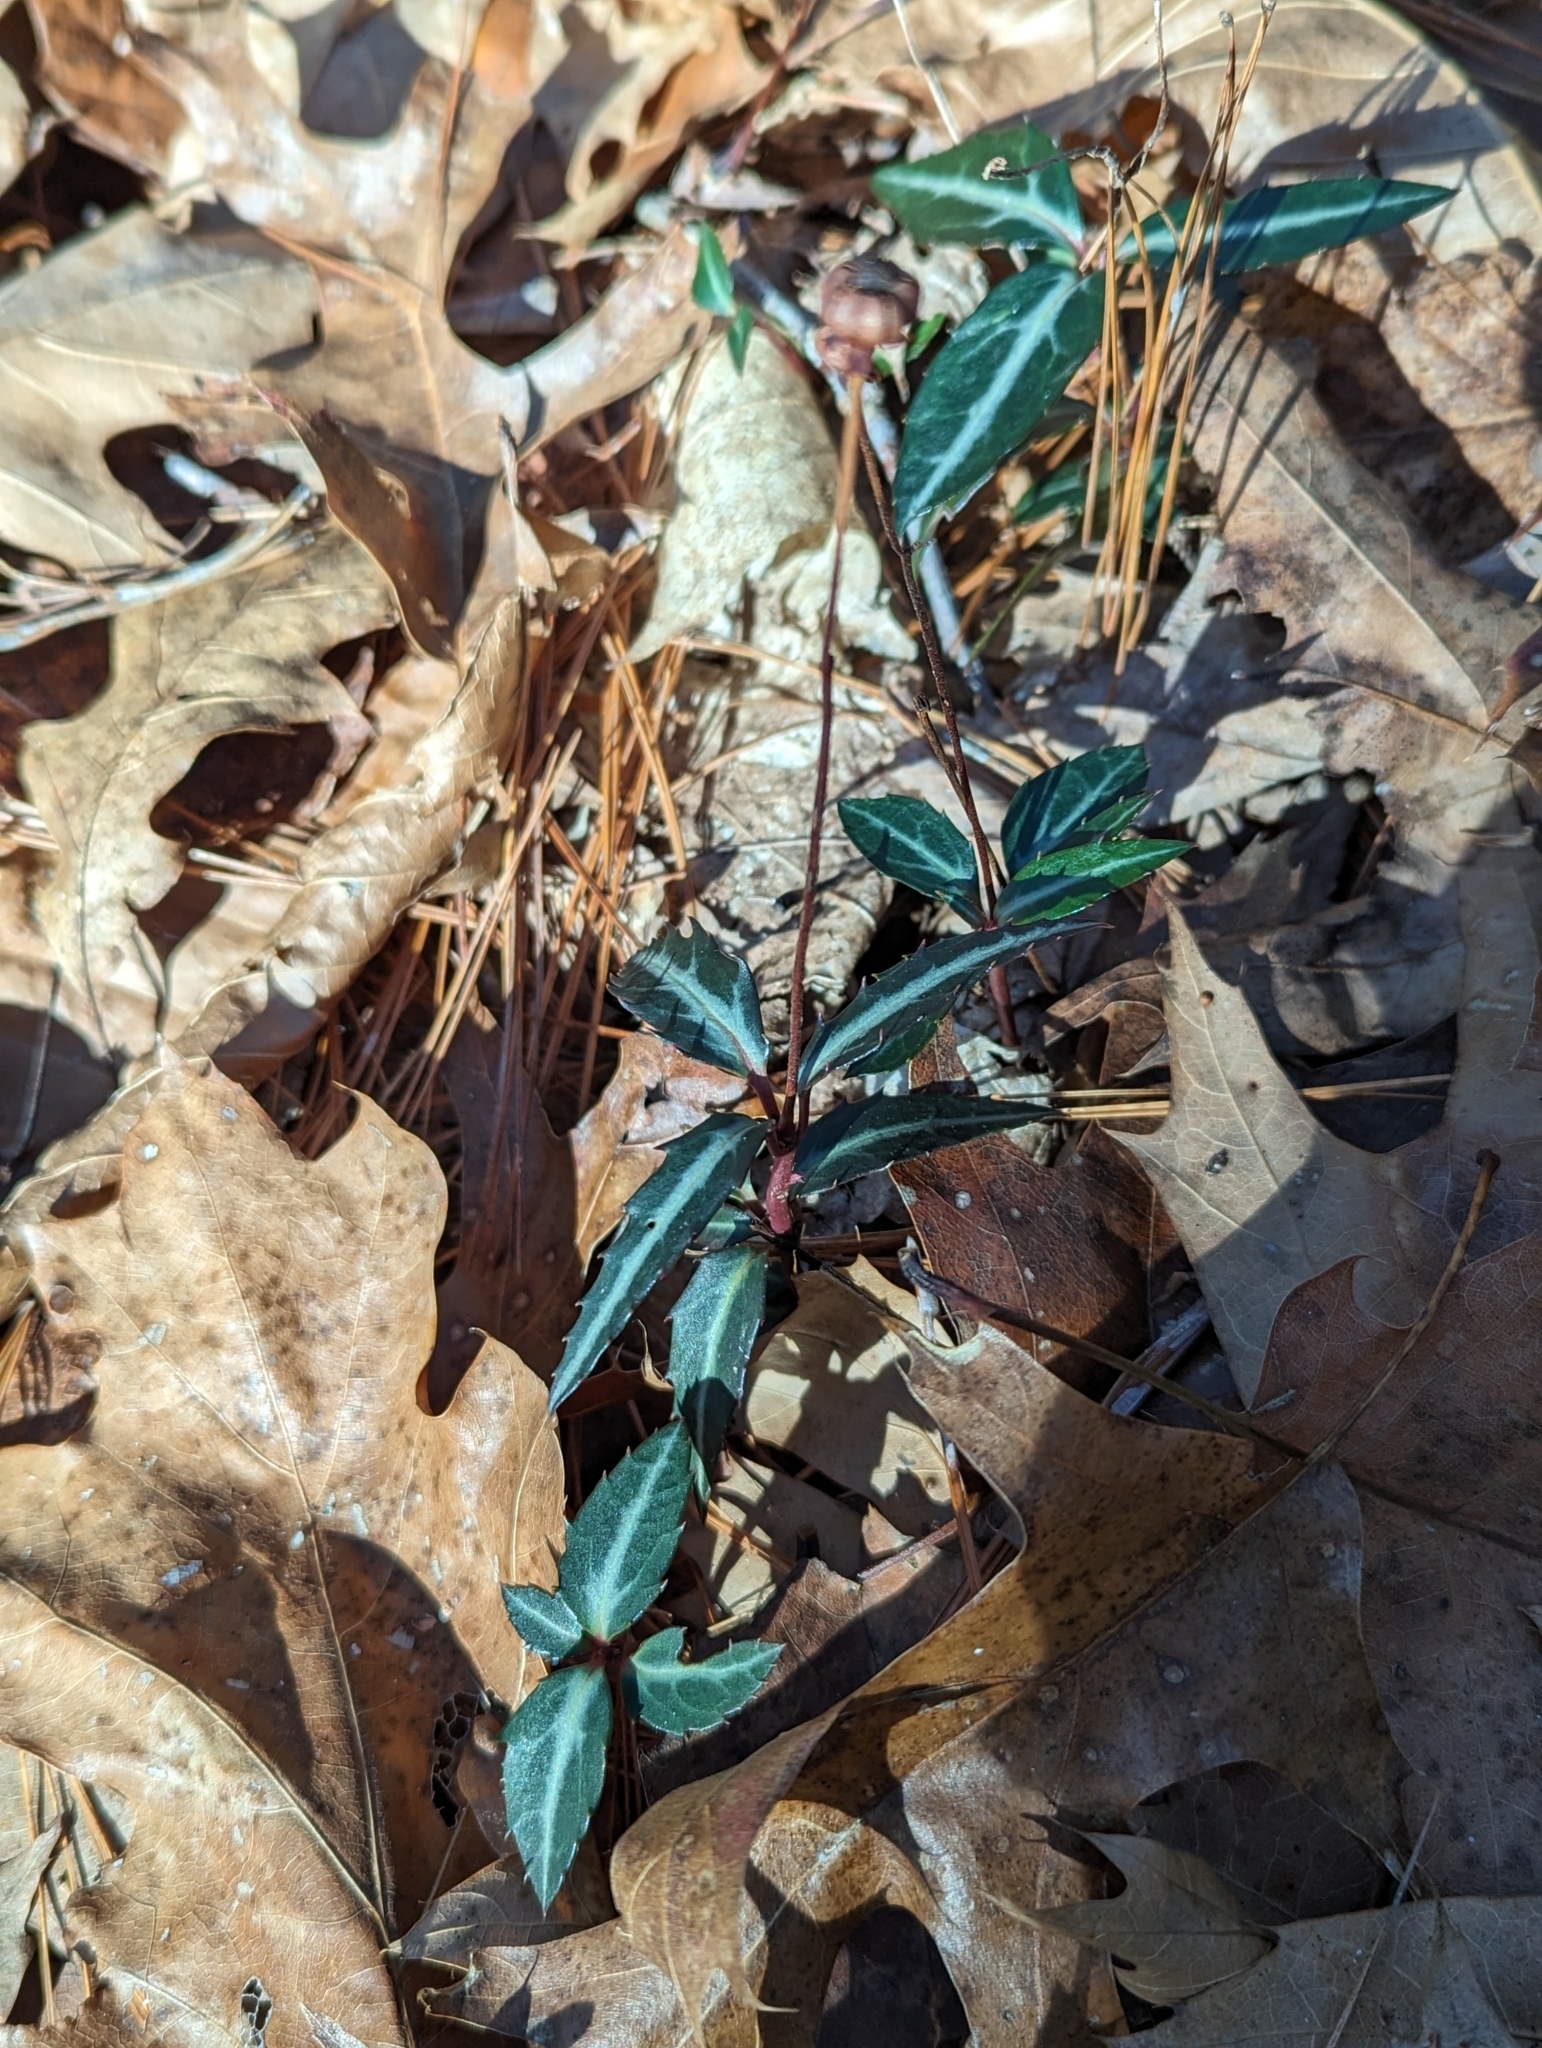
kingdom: Plantae
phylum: Tracheophyta
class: Magnoliopsida
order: Ericales
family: Ericaceae
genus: Chimaphila
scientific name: Chimaphila maculata
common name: Spotted pipsissewa
